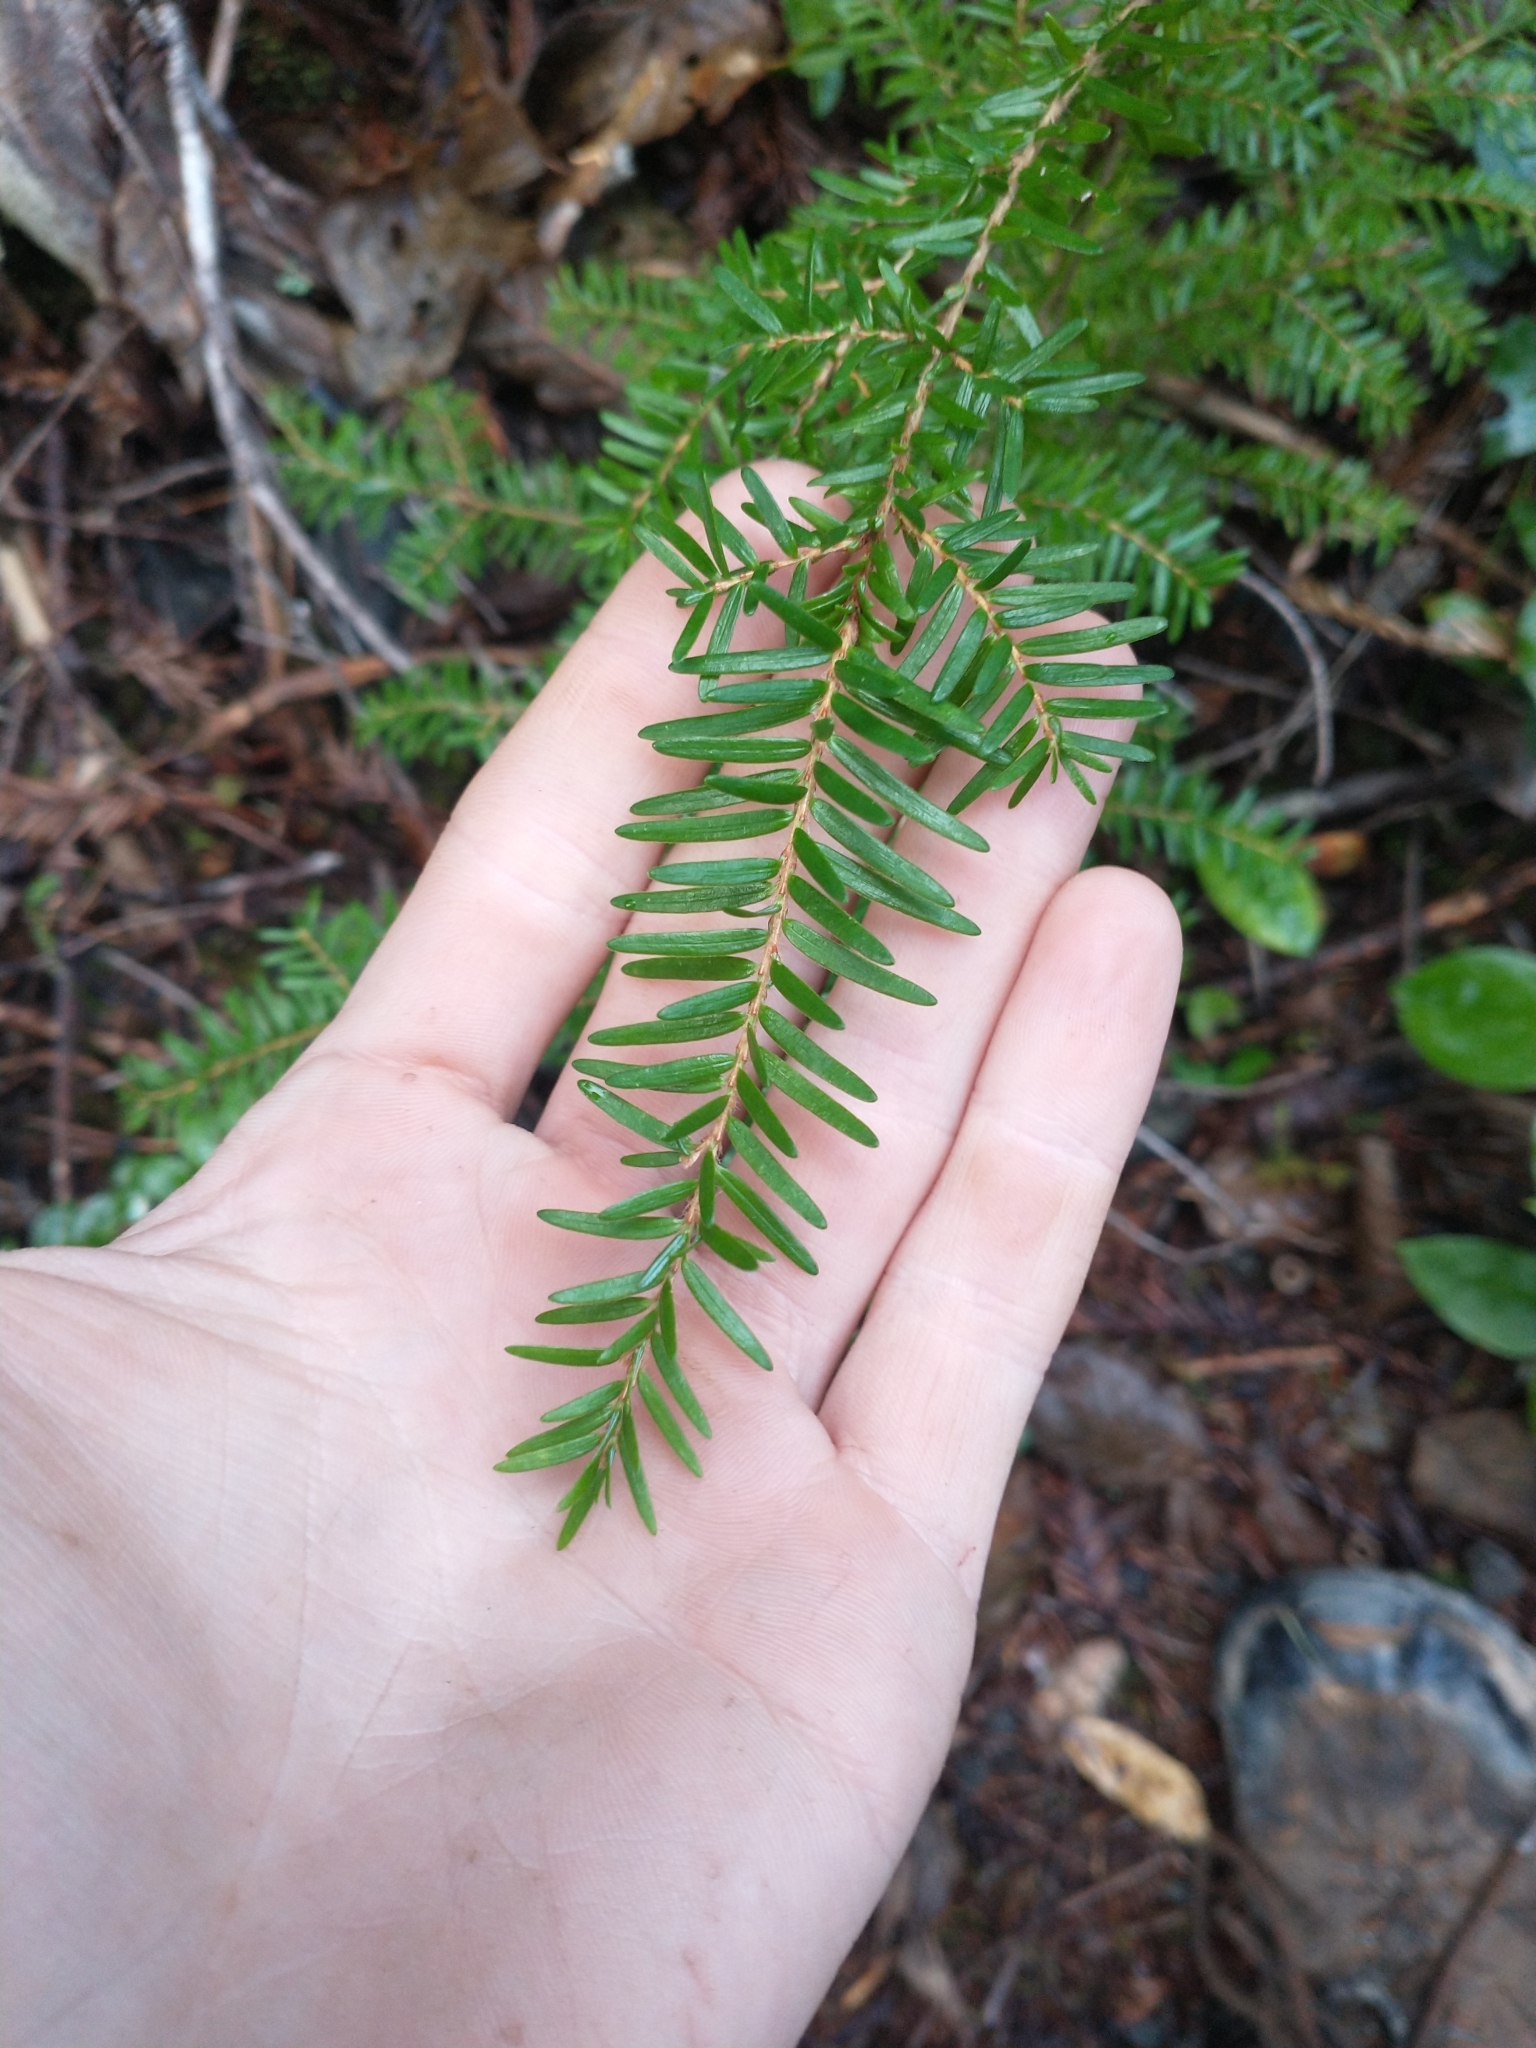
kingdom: Plantae
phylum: Tracheophyta
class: Pinopsida
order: Pinales
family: Pinaceae
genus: Tsuga
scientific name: Tsuga heterophylla
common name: Western hemlock
